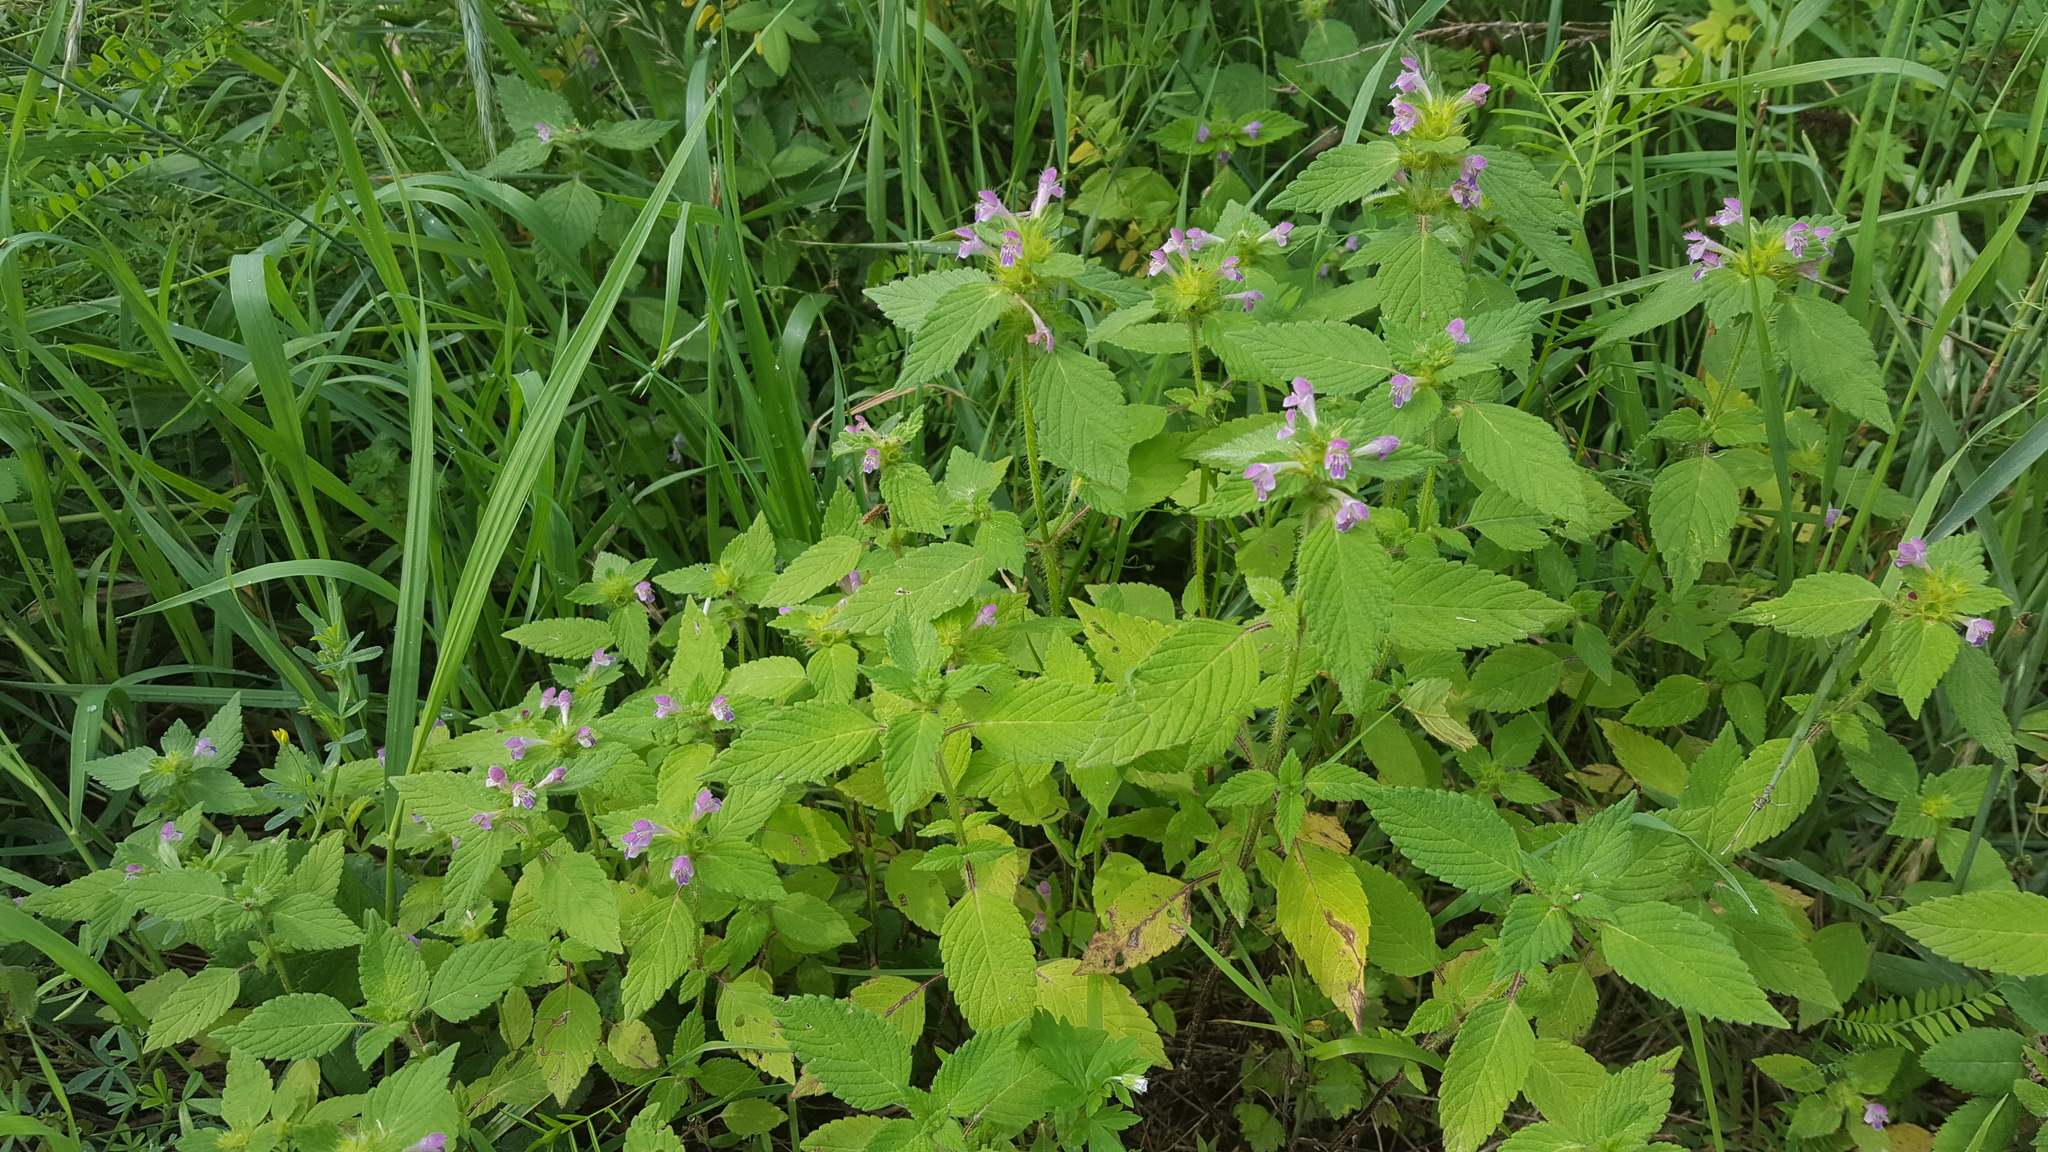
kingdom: Plantae
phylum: Tracheophyta
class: Magnoliopsida
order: Lamiales
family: Lamiaceae
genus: Galeopsis
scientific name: Galeopsis bifida
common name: Bifid hemp-nettle
